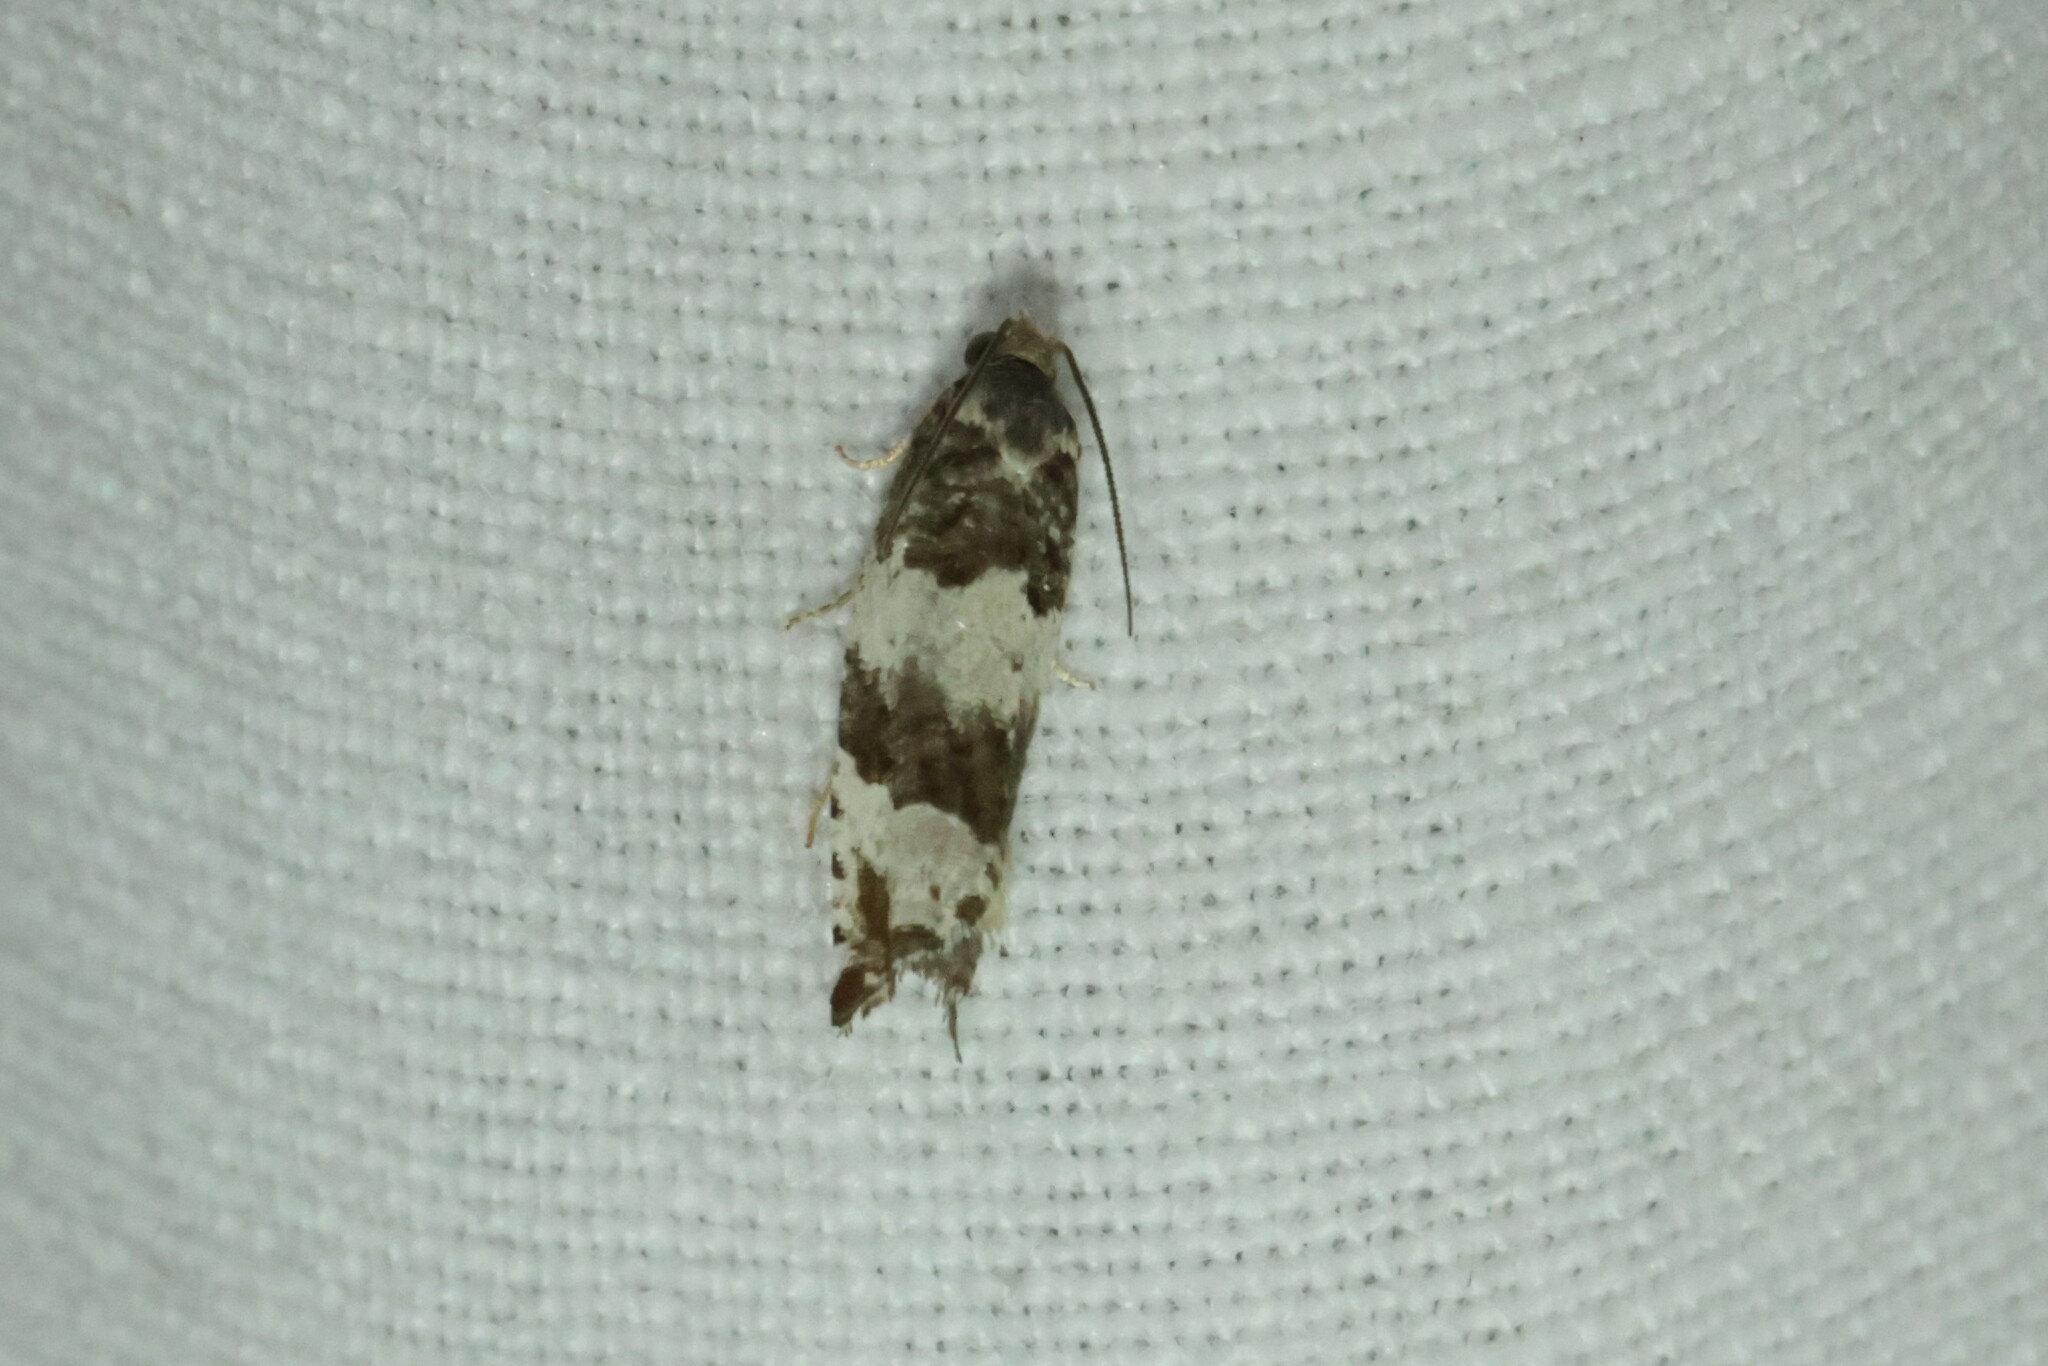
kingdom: Animalia
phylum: Arthropoda
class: Insecta
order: Lepidoptera
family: Tortricidae
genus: Gypsonoma
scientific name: Gypsonoma fasciolana
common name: Willow-and-poplar leafroller
